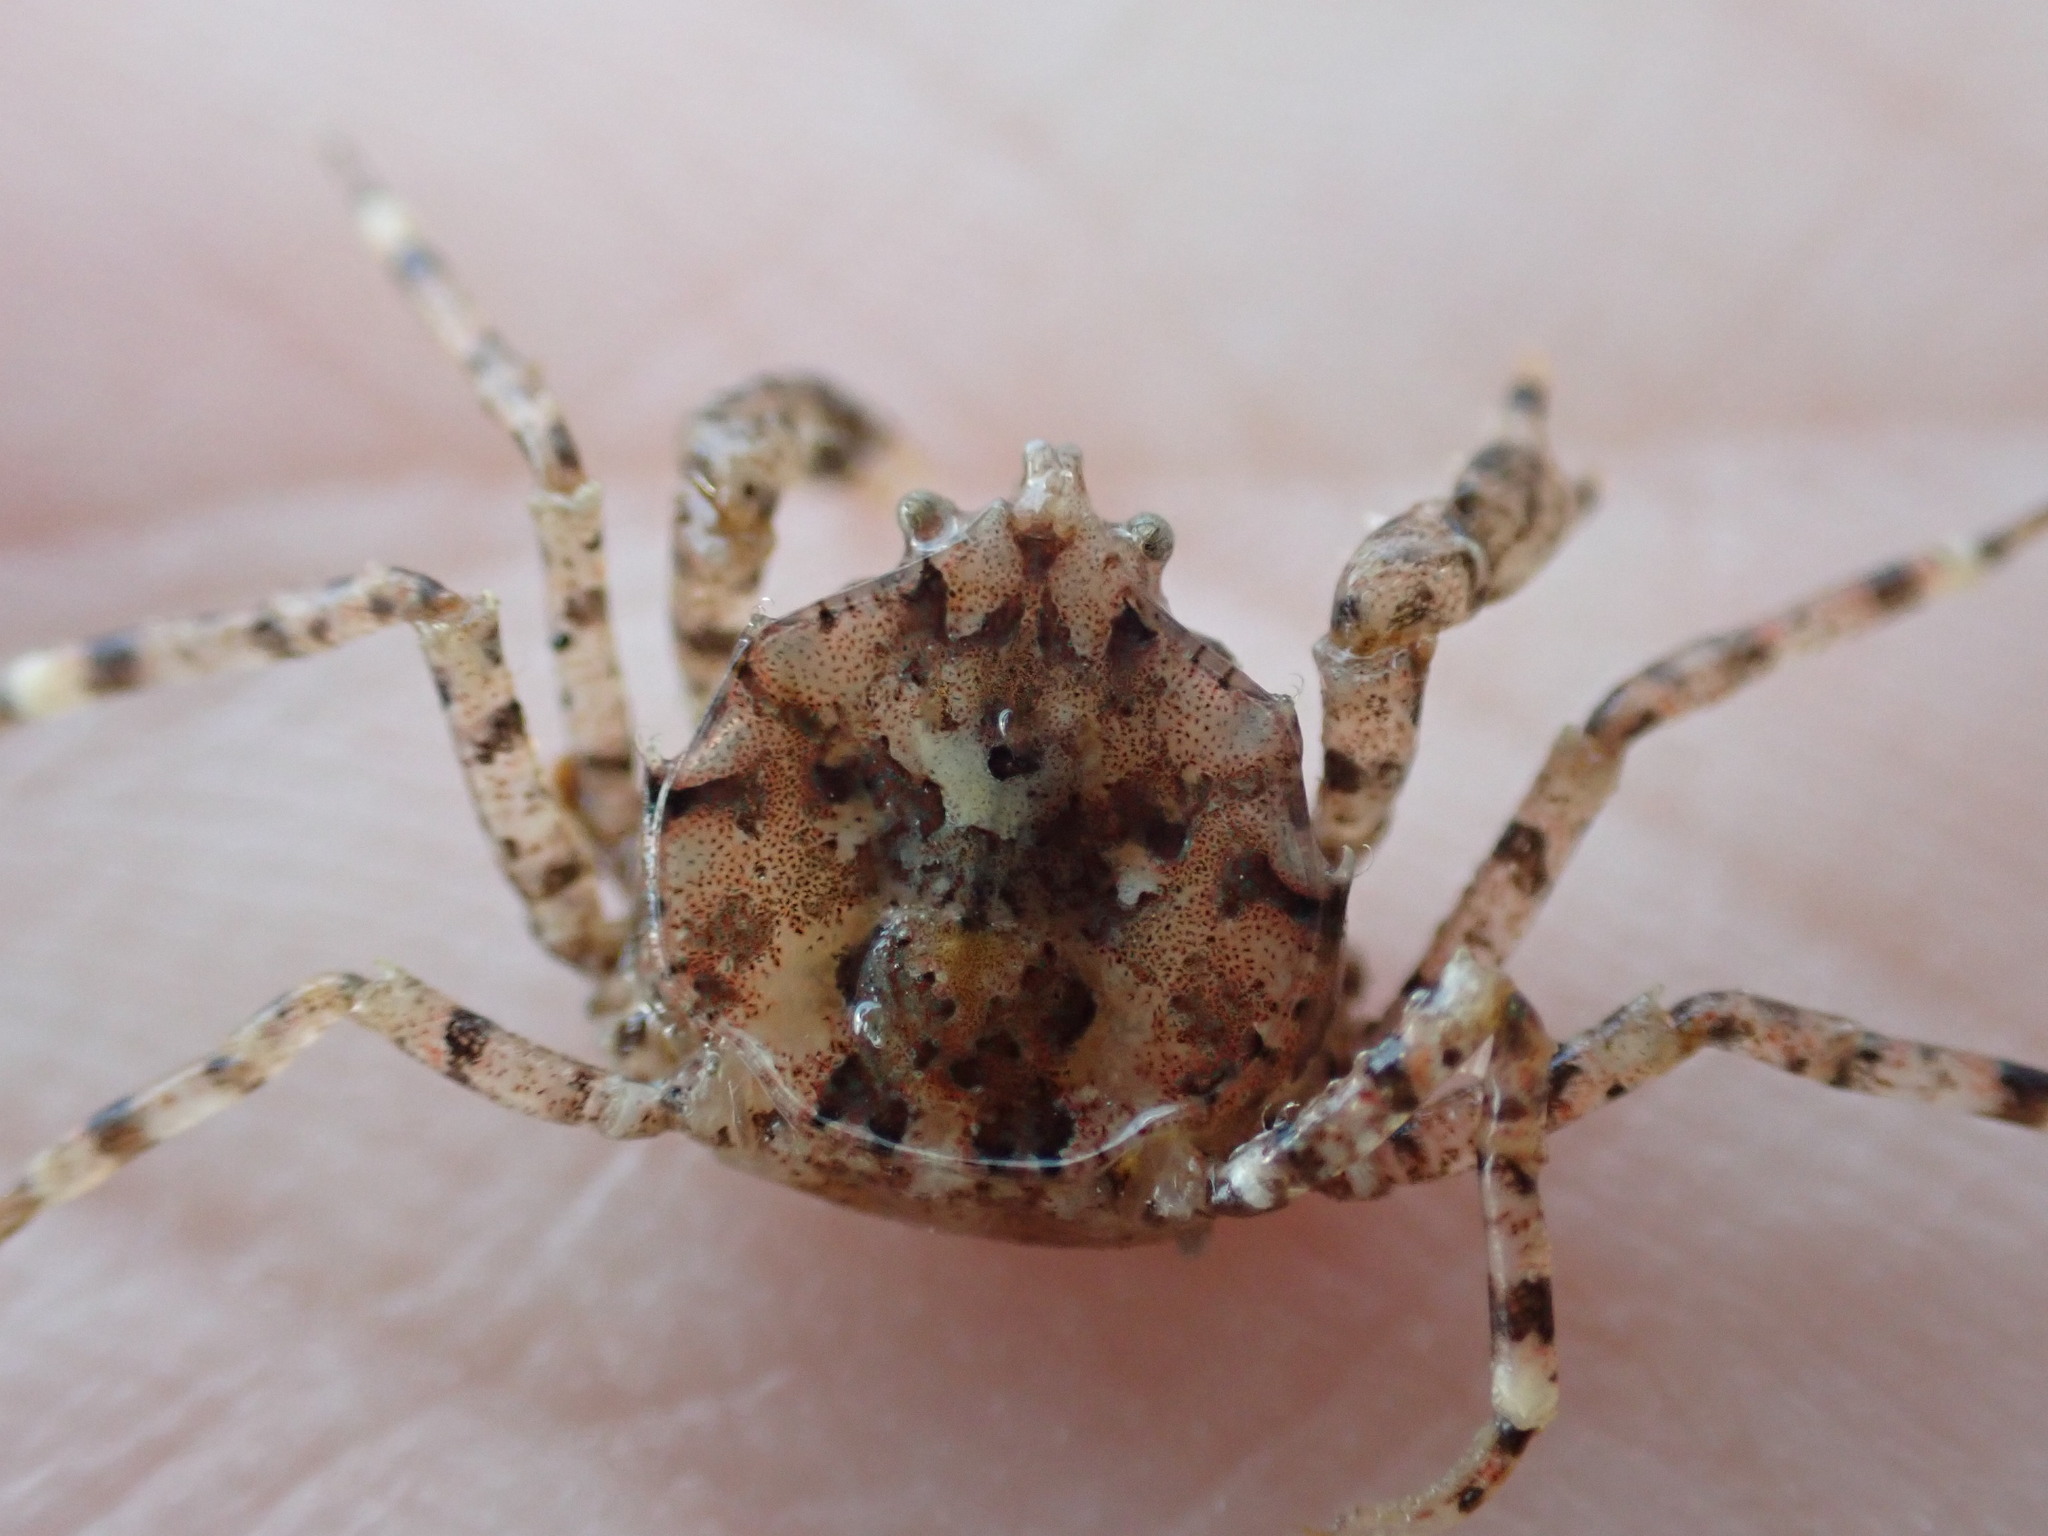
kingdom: Animalia
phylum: Arthropoda
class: Malacostraca
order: Decapoda
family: Hymenosomatidae
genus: Halicarcinus
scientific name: Halicarcinus cookii
